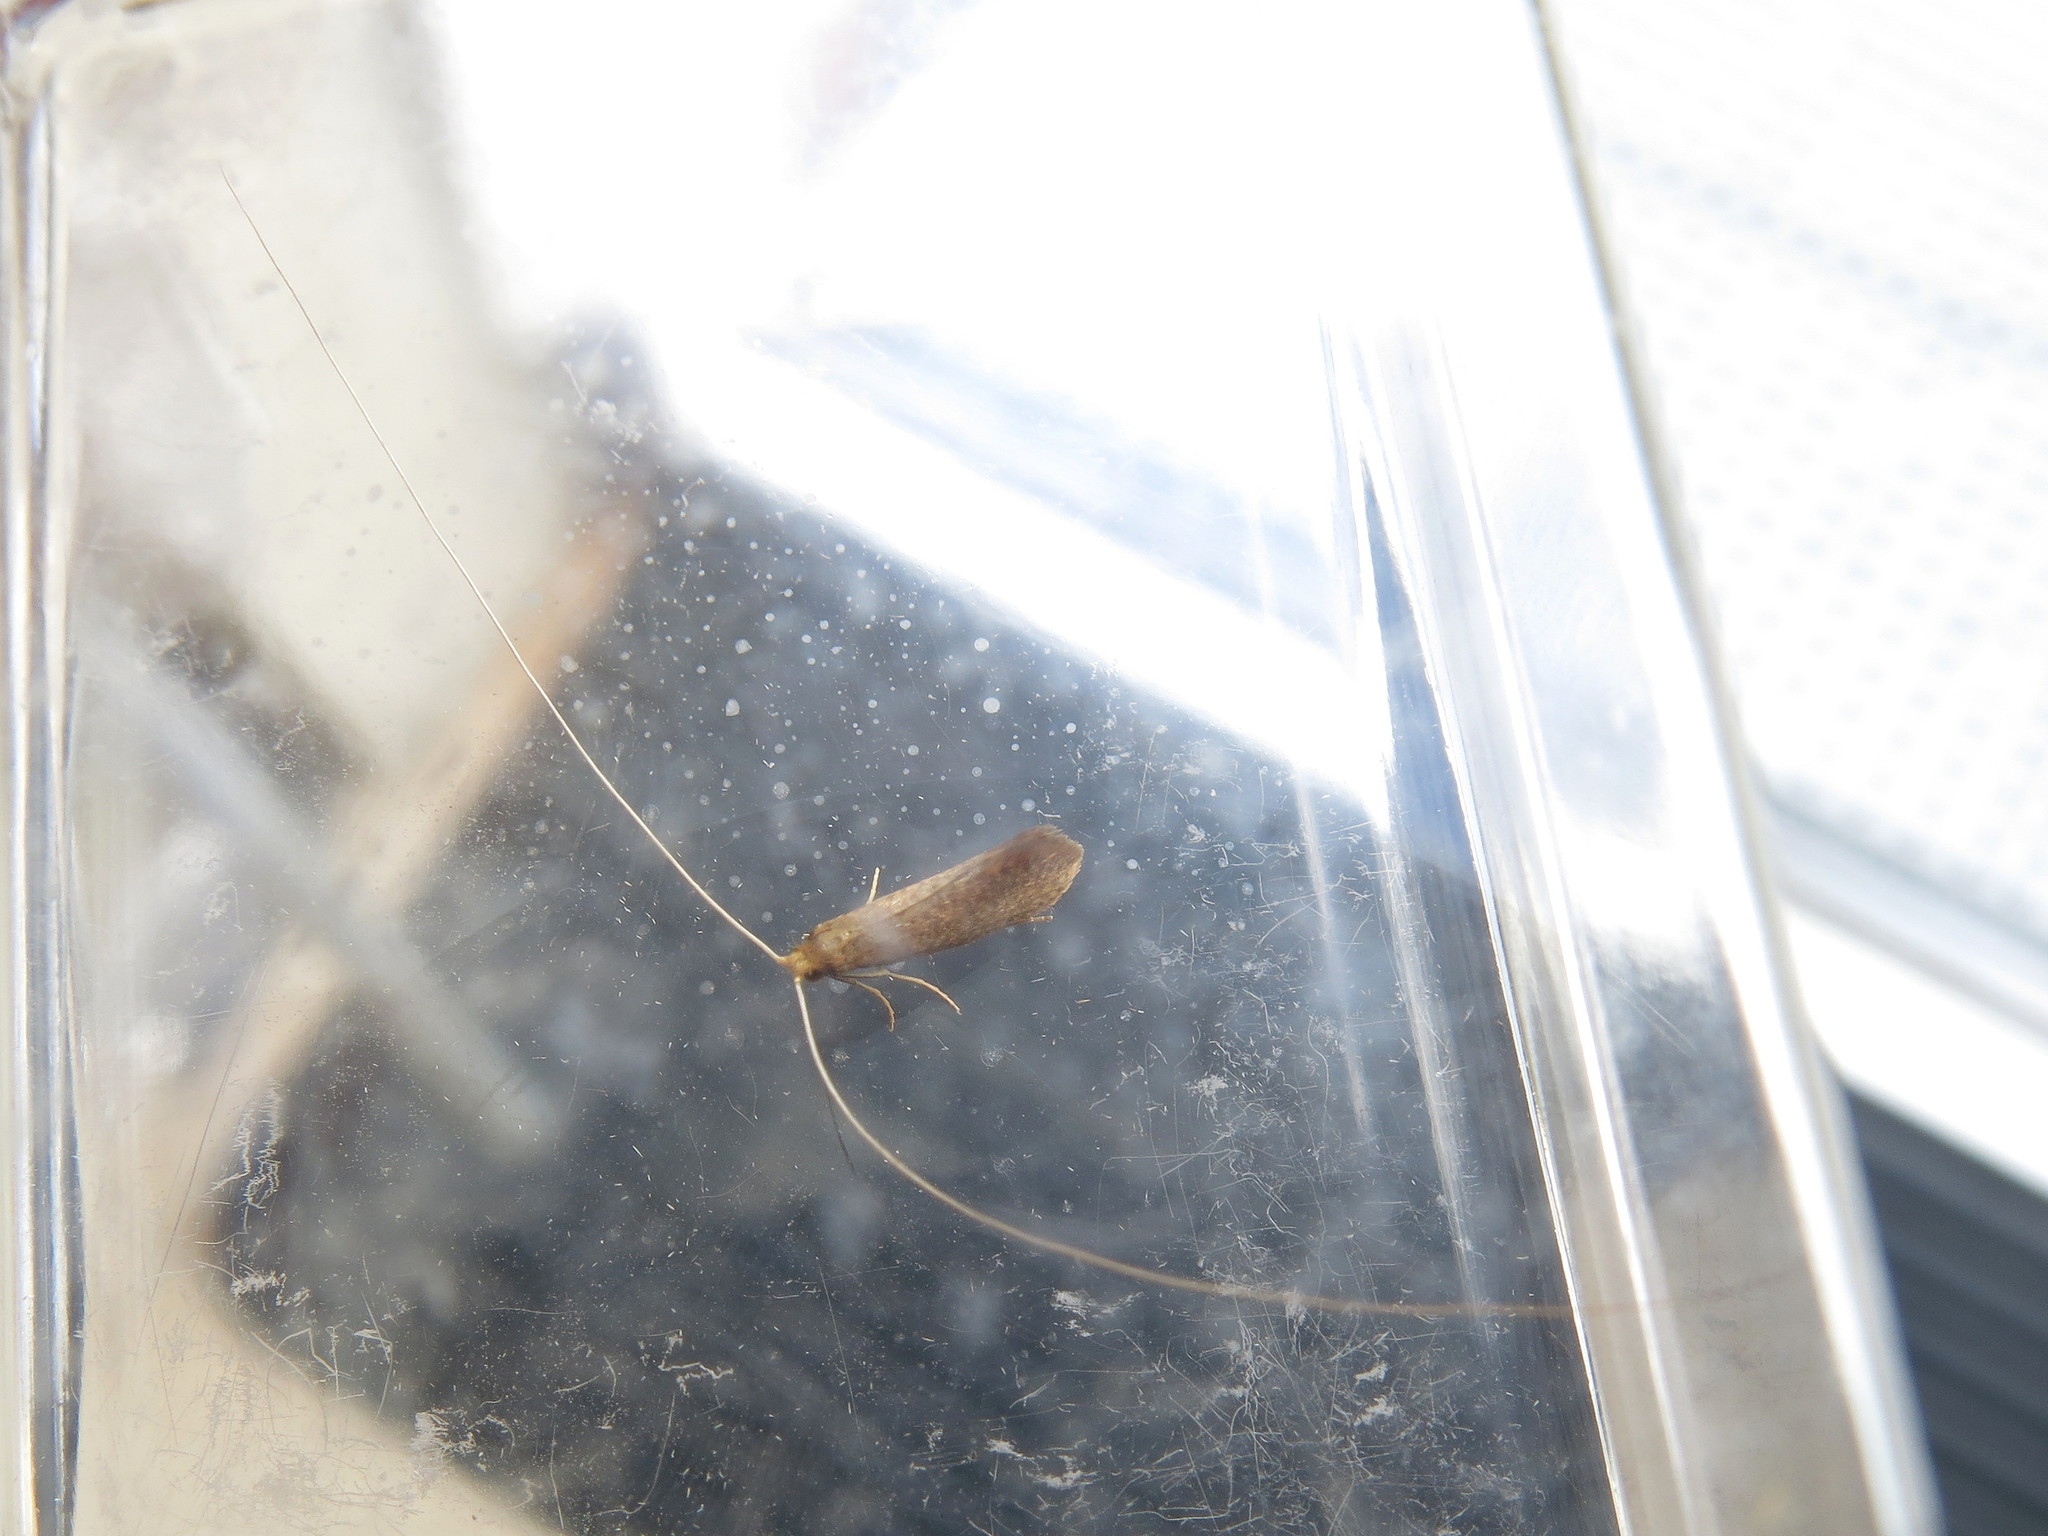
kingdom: Animalia
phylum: Arthropoda
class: Insecta
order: Lepidoptera
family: Adelidae
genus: Nematopogon
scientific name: Nematopogon swammerdamella
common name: Large long-horn
